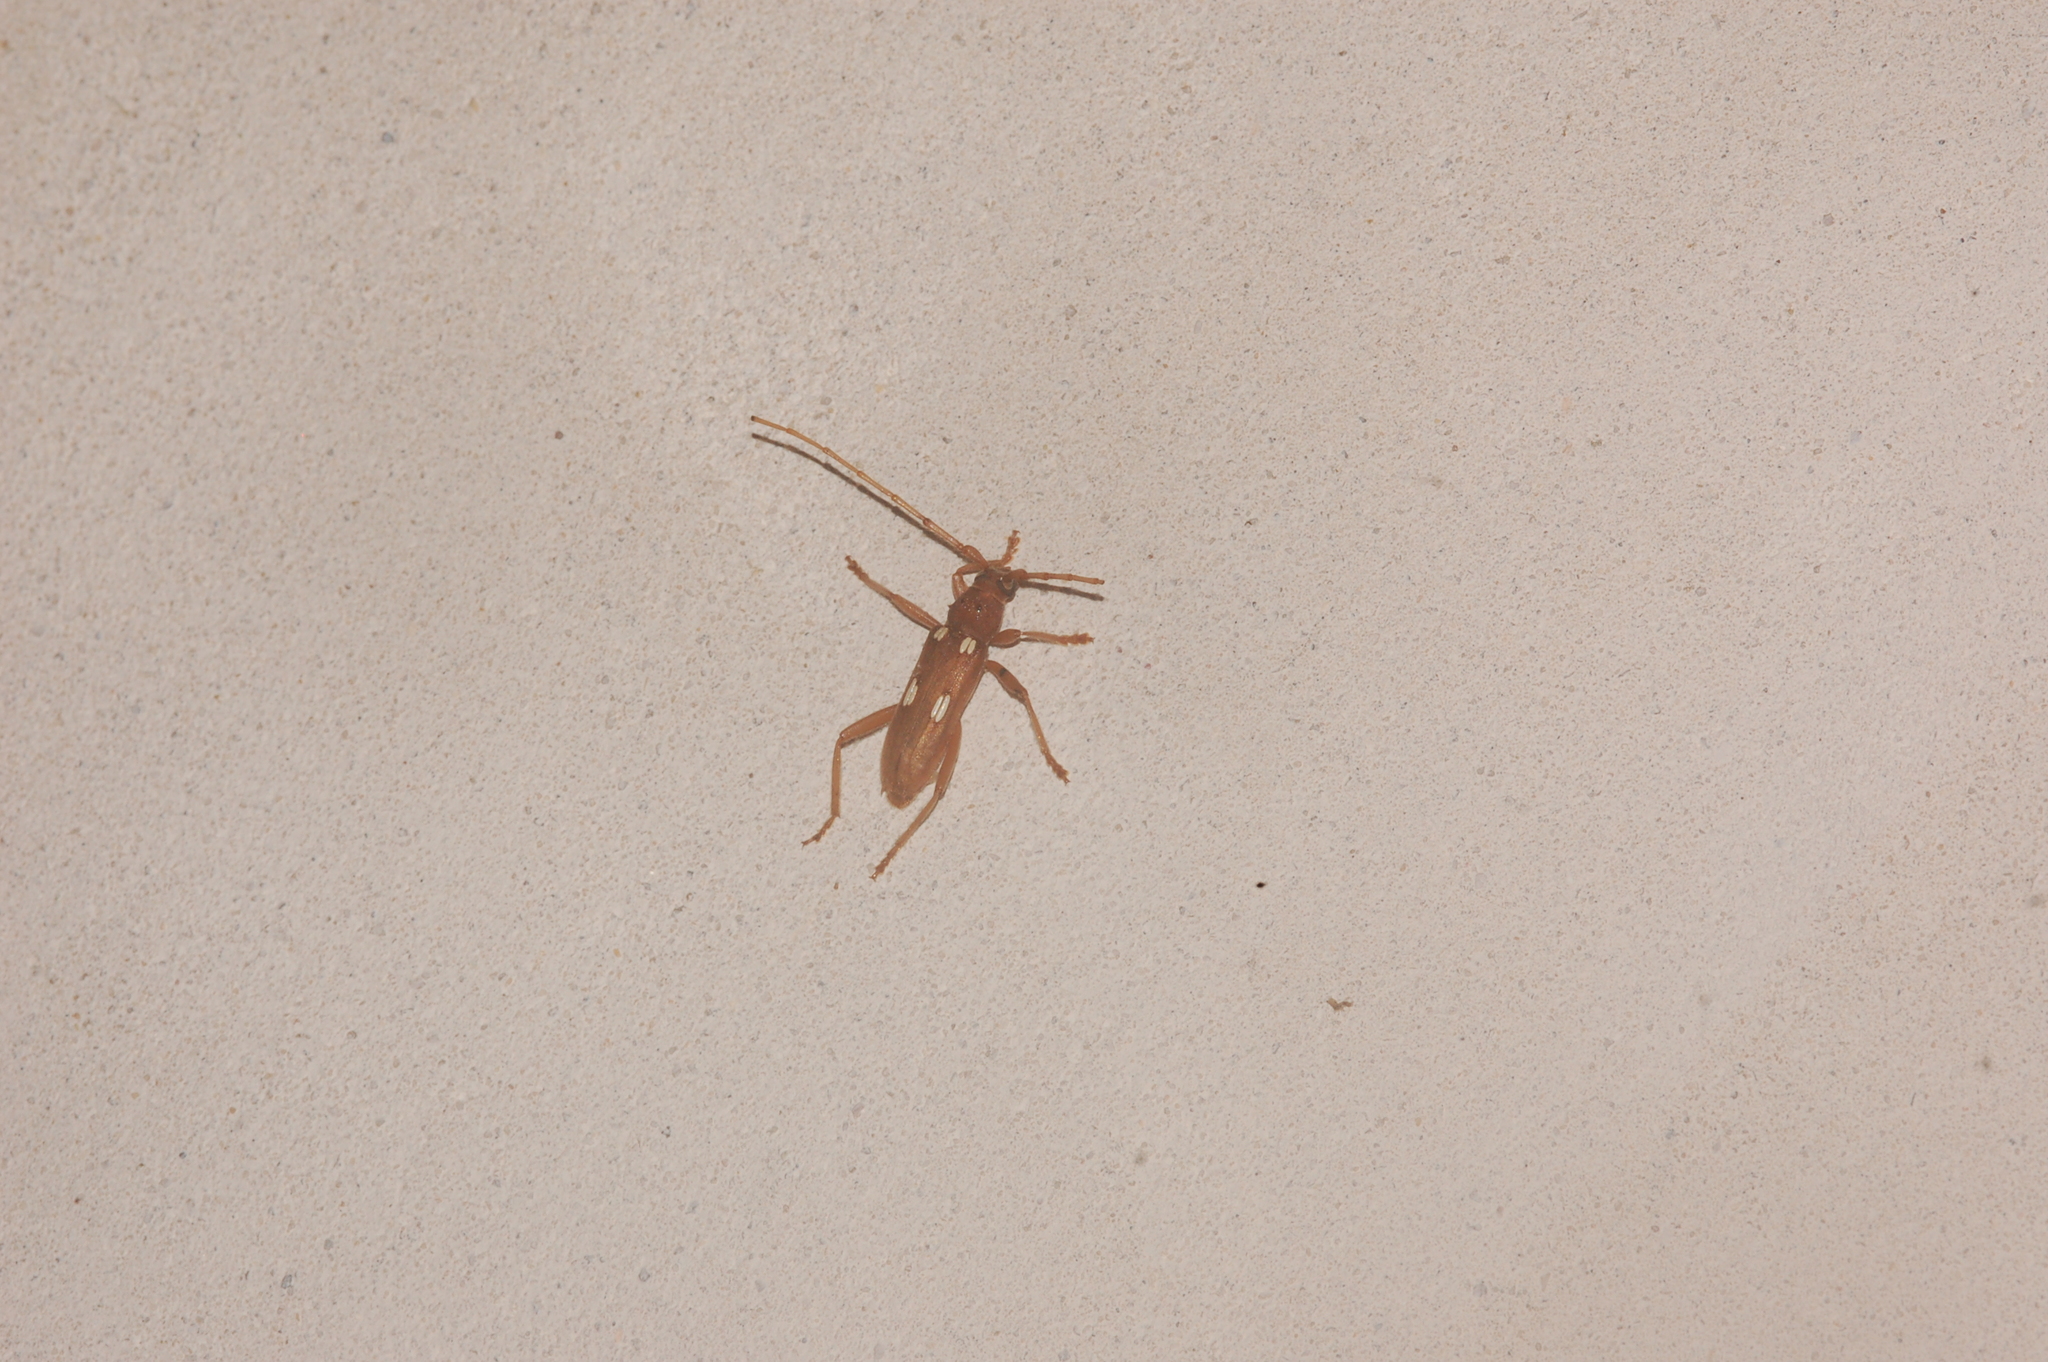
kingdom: Animalia
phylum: Arthropoda
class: Insecta
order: Coleoptera
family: Cerambycidae
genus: Eburia
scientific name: Eburia quadrigeminata
